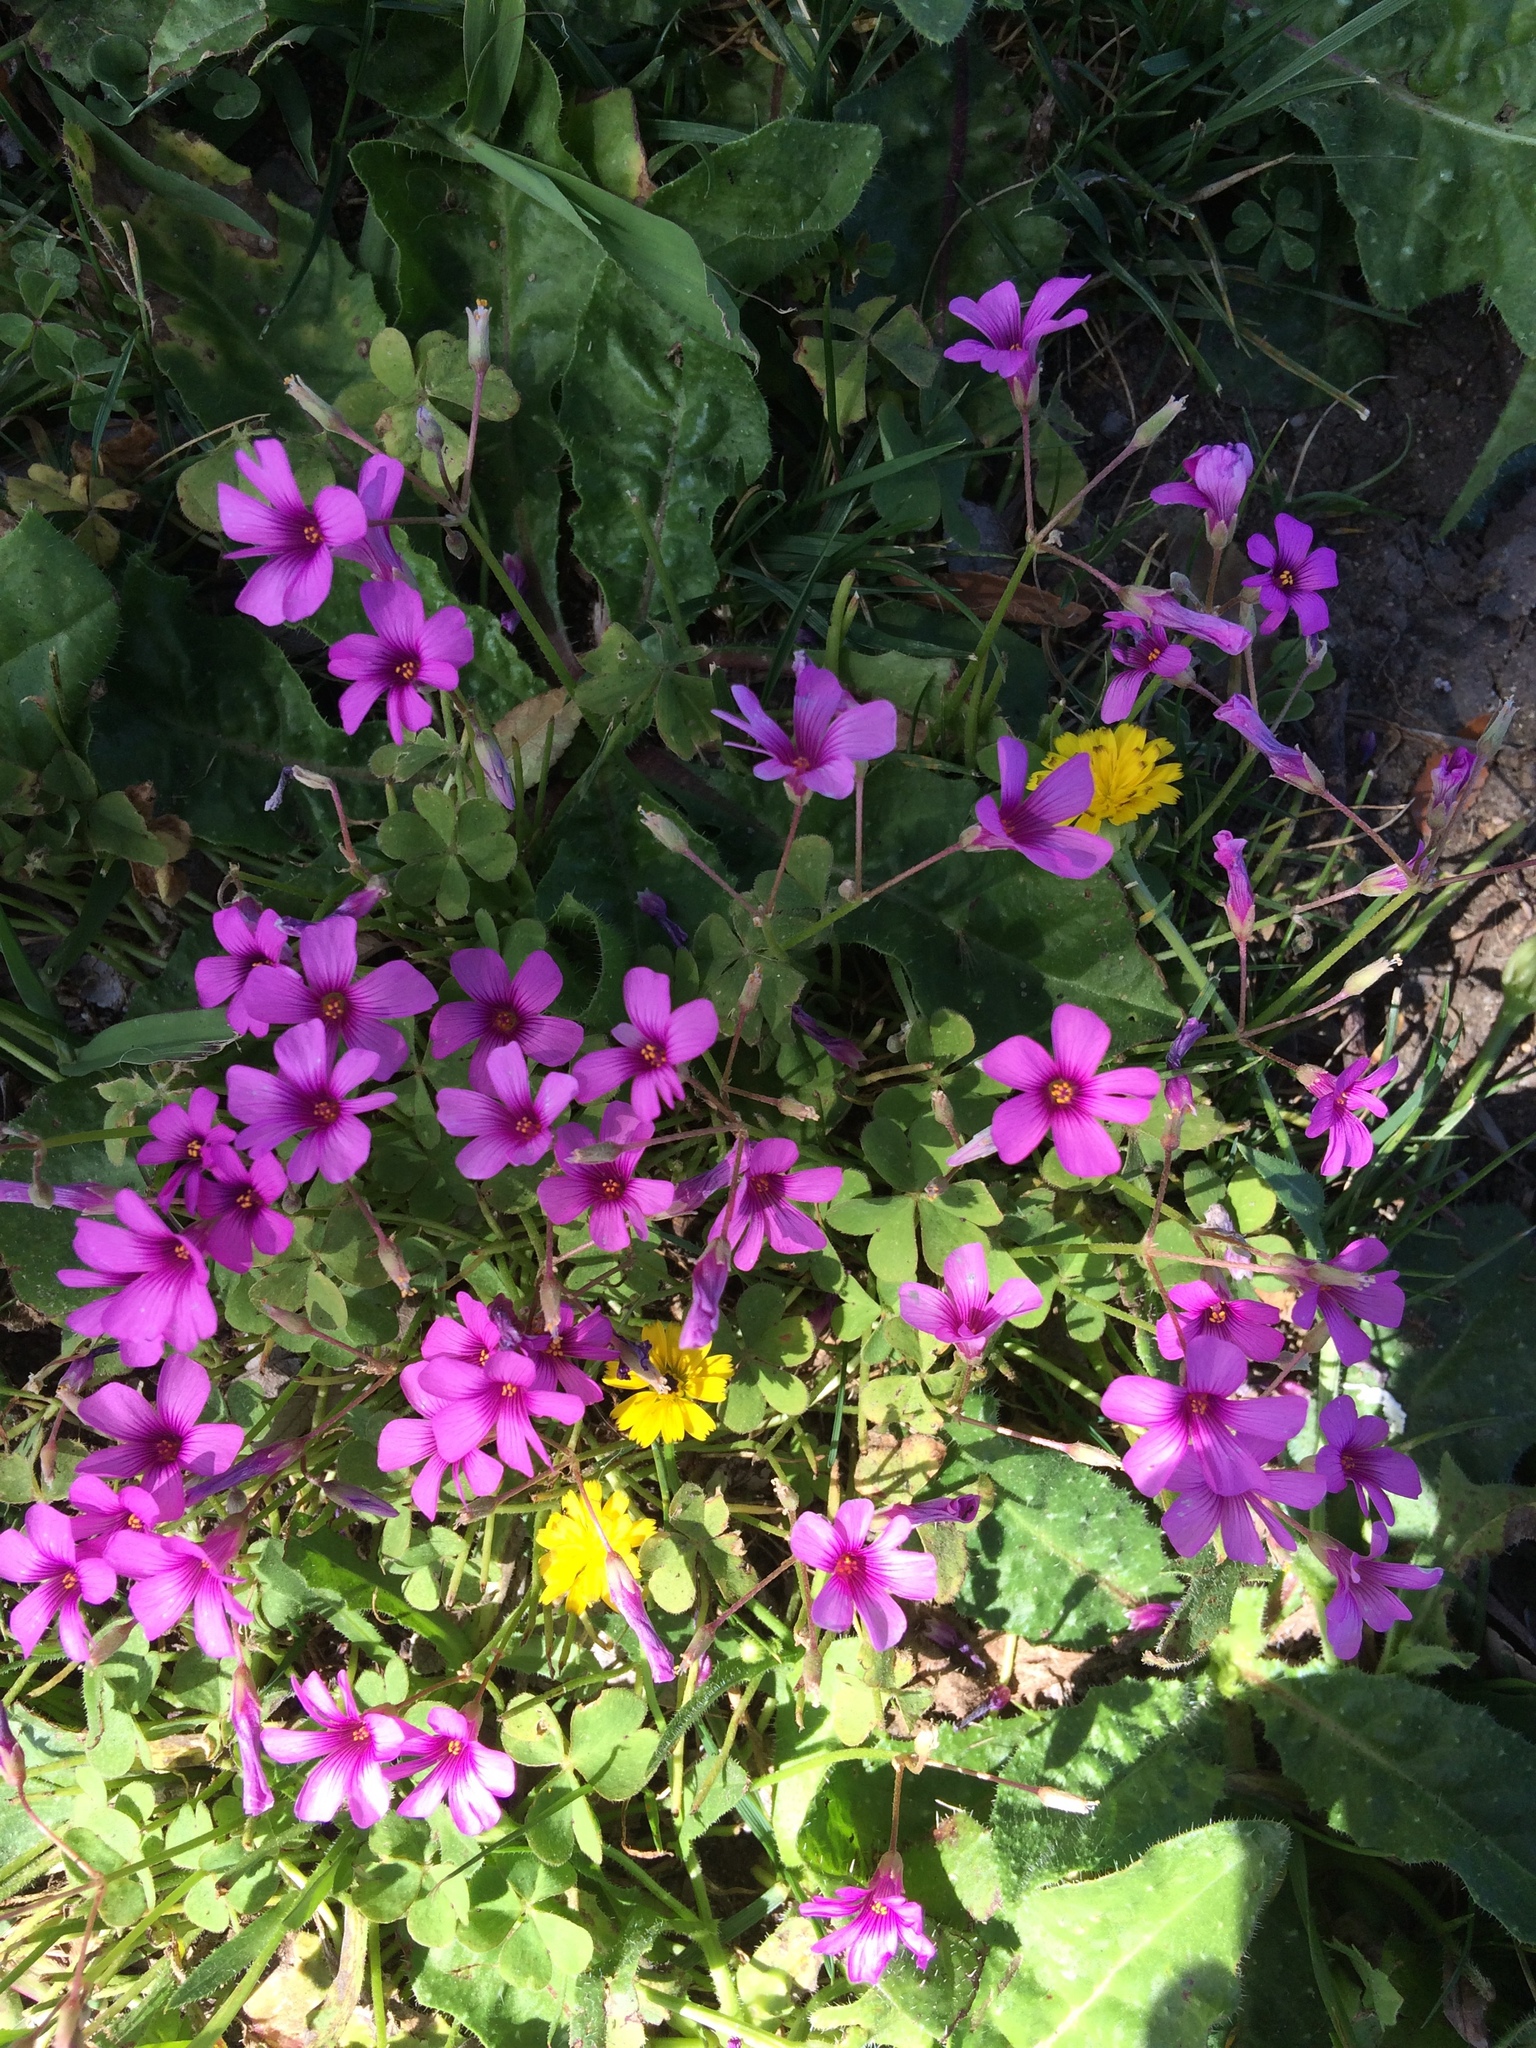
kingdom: Plantae
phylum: Tracheophyta
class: Magnoliopsida
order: Oxalidales
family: Oxalidaceae
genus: Oxalis
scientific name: Oxalis articulata
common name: Pink-sorrel
